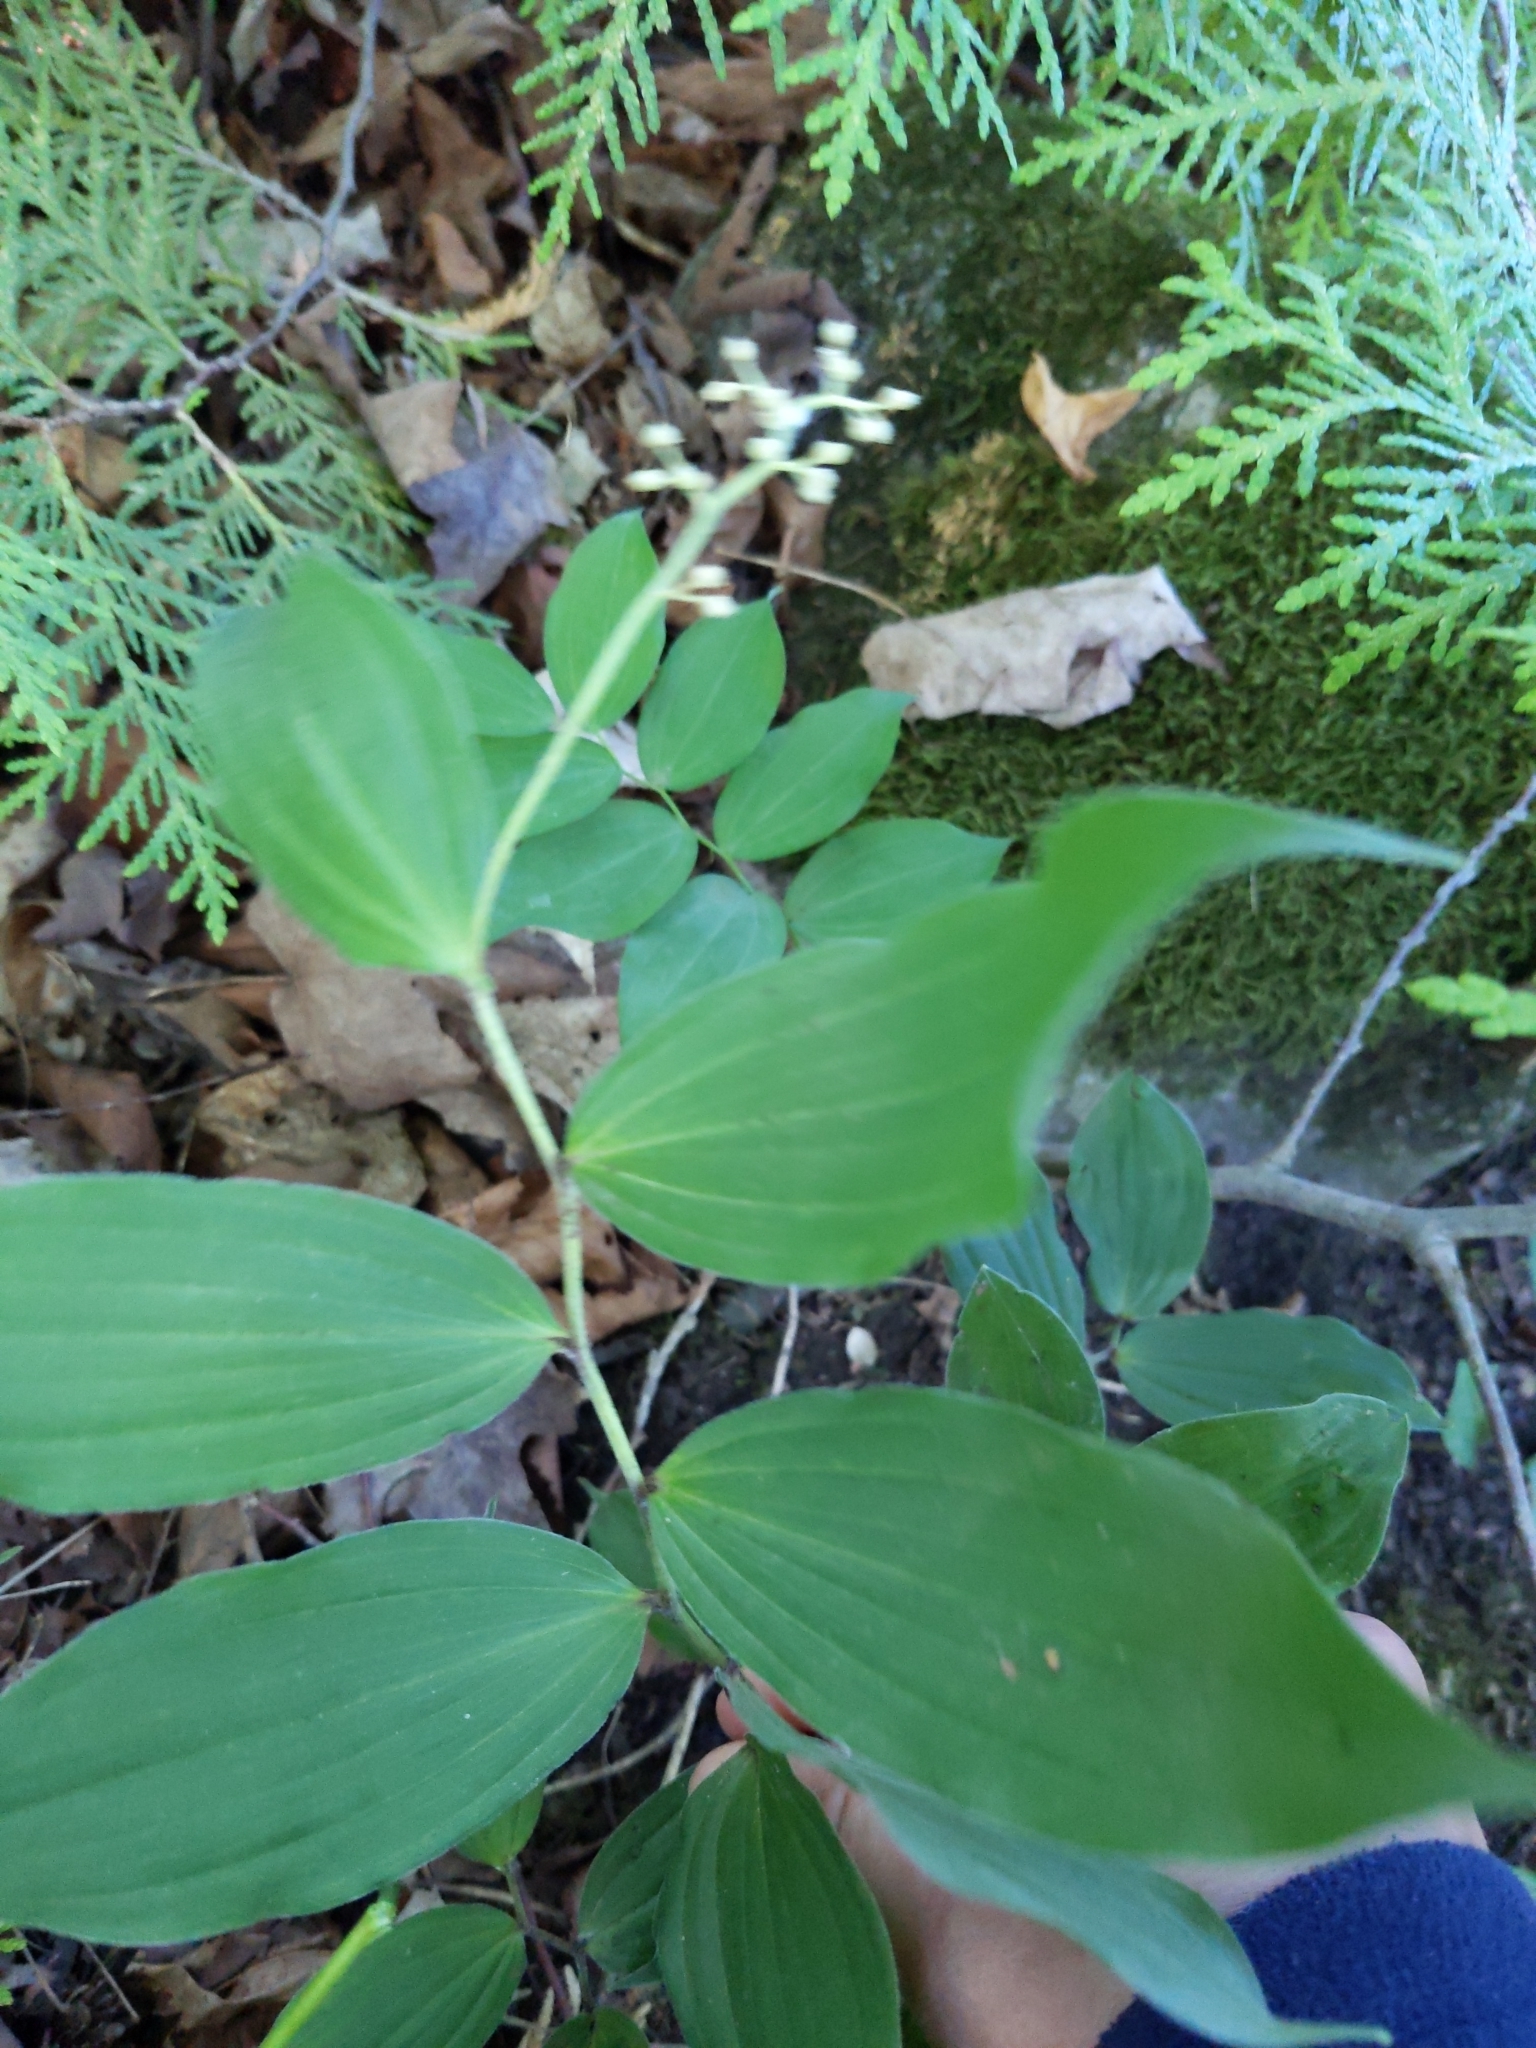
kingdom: Plantae
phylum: Tracheophyta
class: Liliopsida
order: Asparagales
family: Asparagaceae
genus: Maianthemum
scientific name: Maianthemum racemosum
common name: False spikenard
